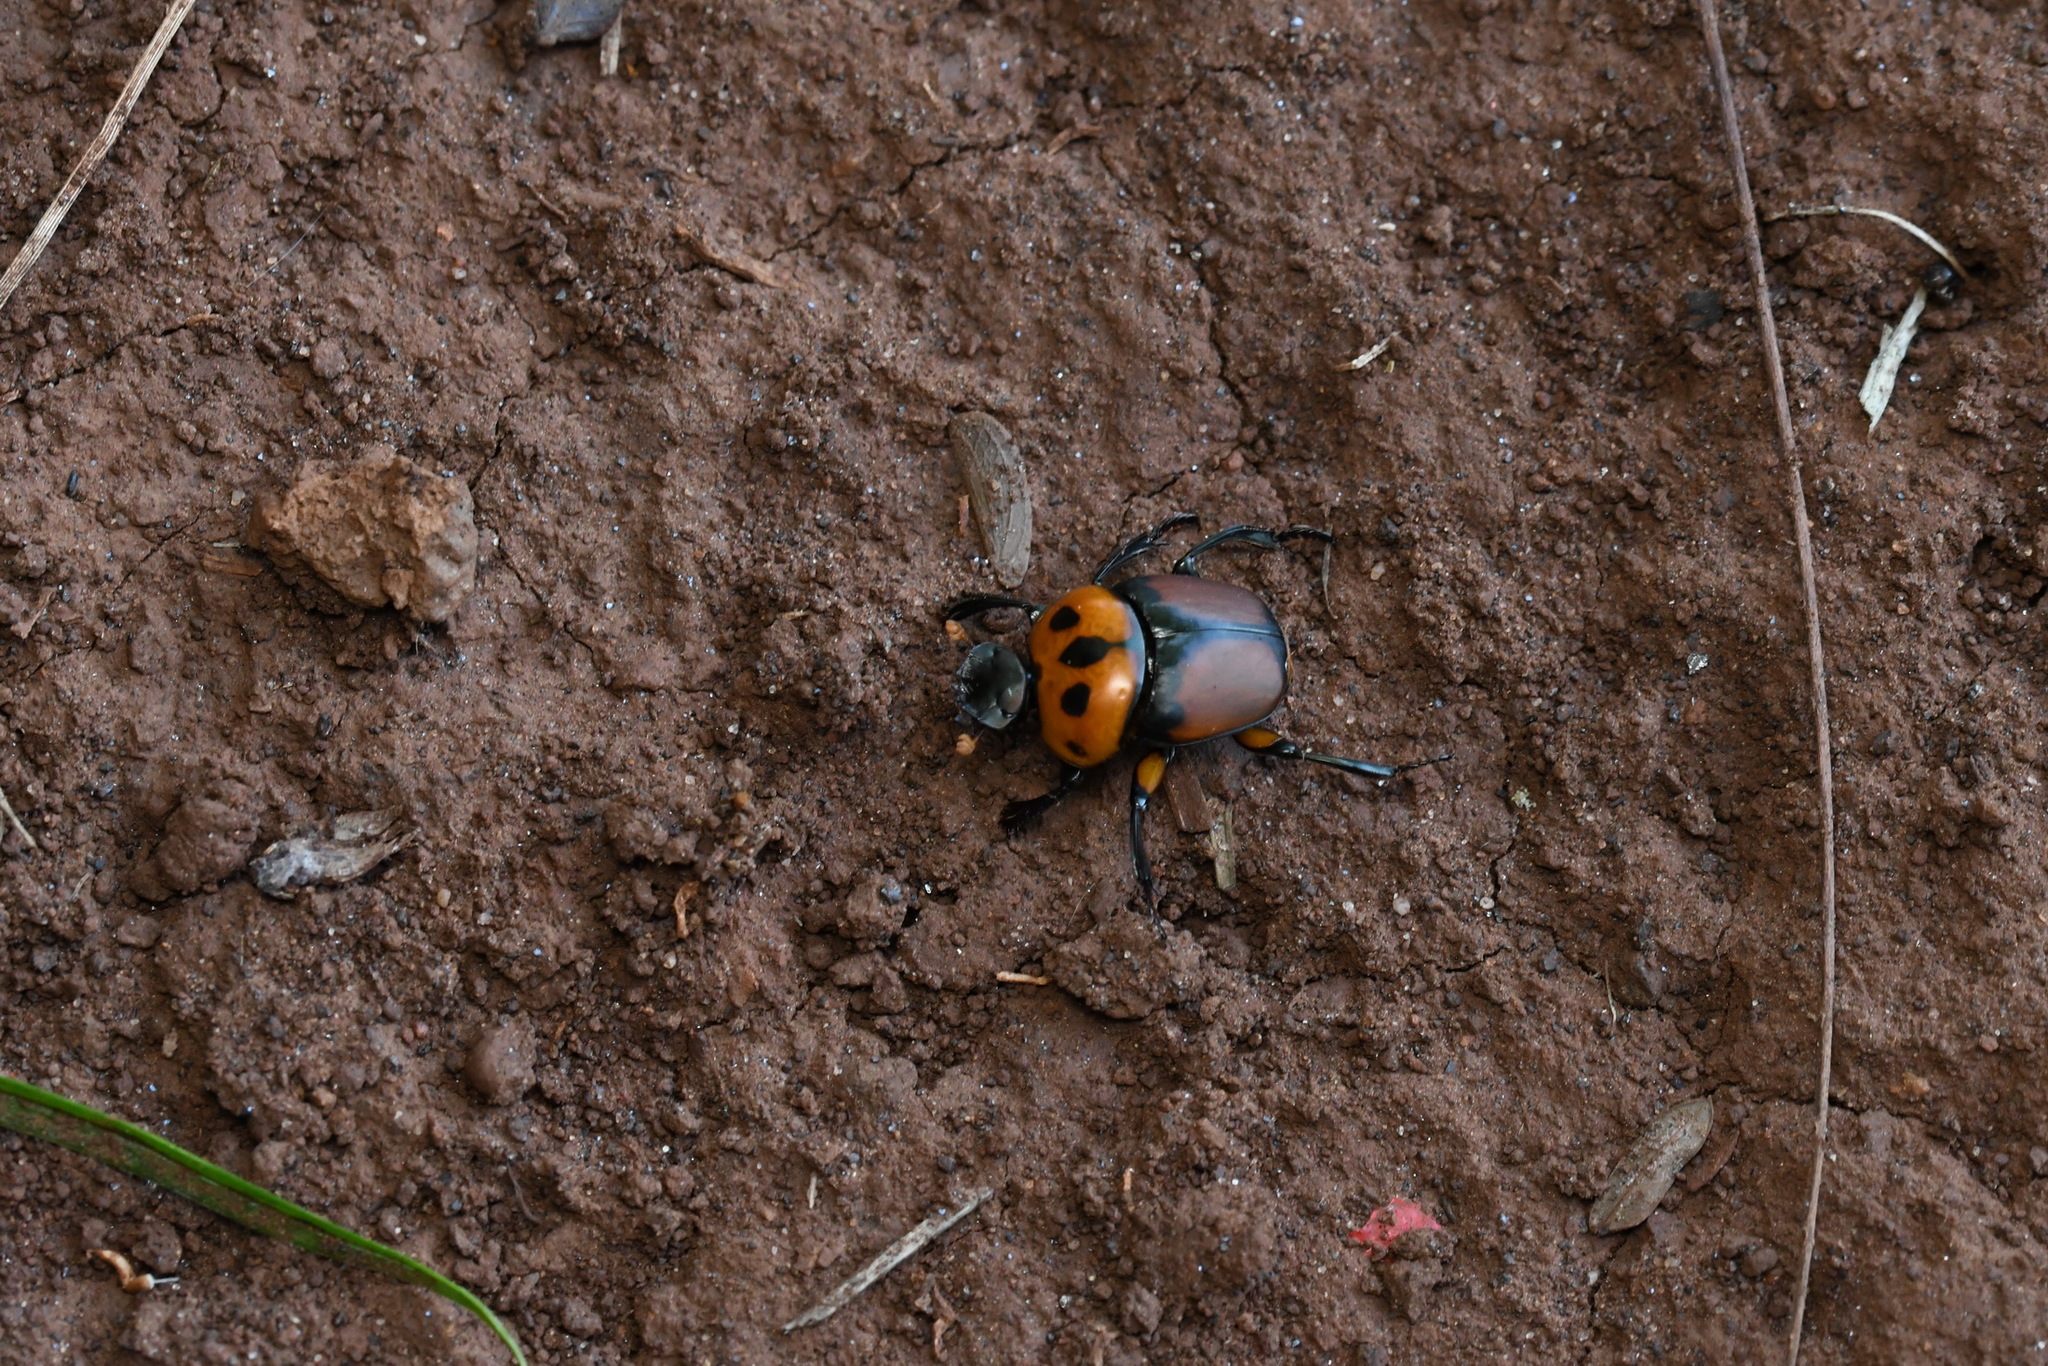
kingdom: Animalia
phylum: Arthropoda
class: Insecta
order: Coleoptera
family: Scarabaeidae
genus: Canthon
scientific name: Canthon quinquemaculatus
